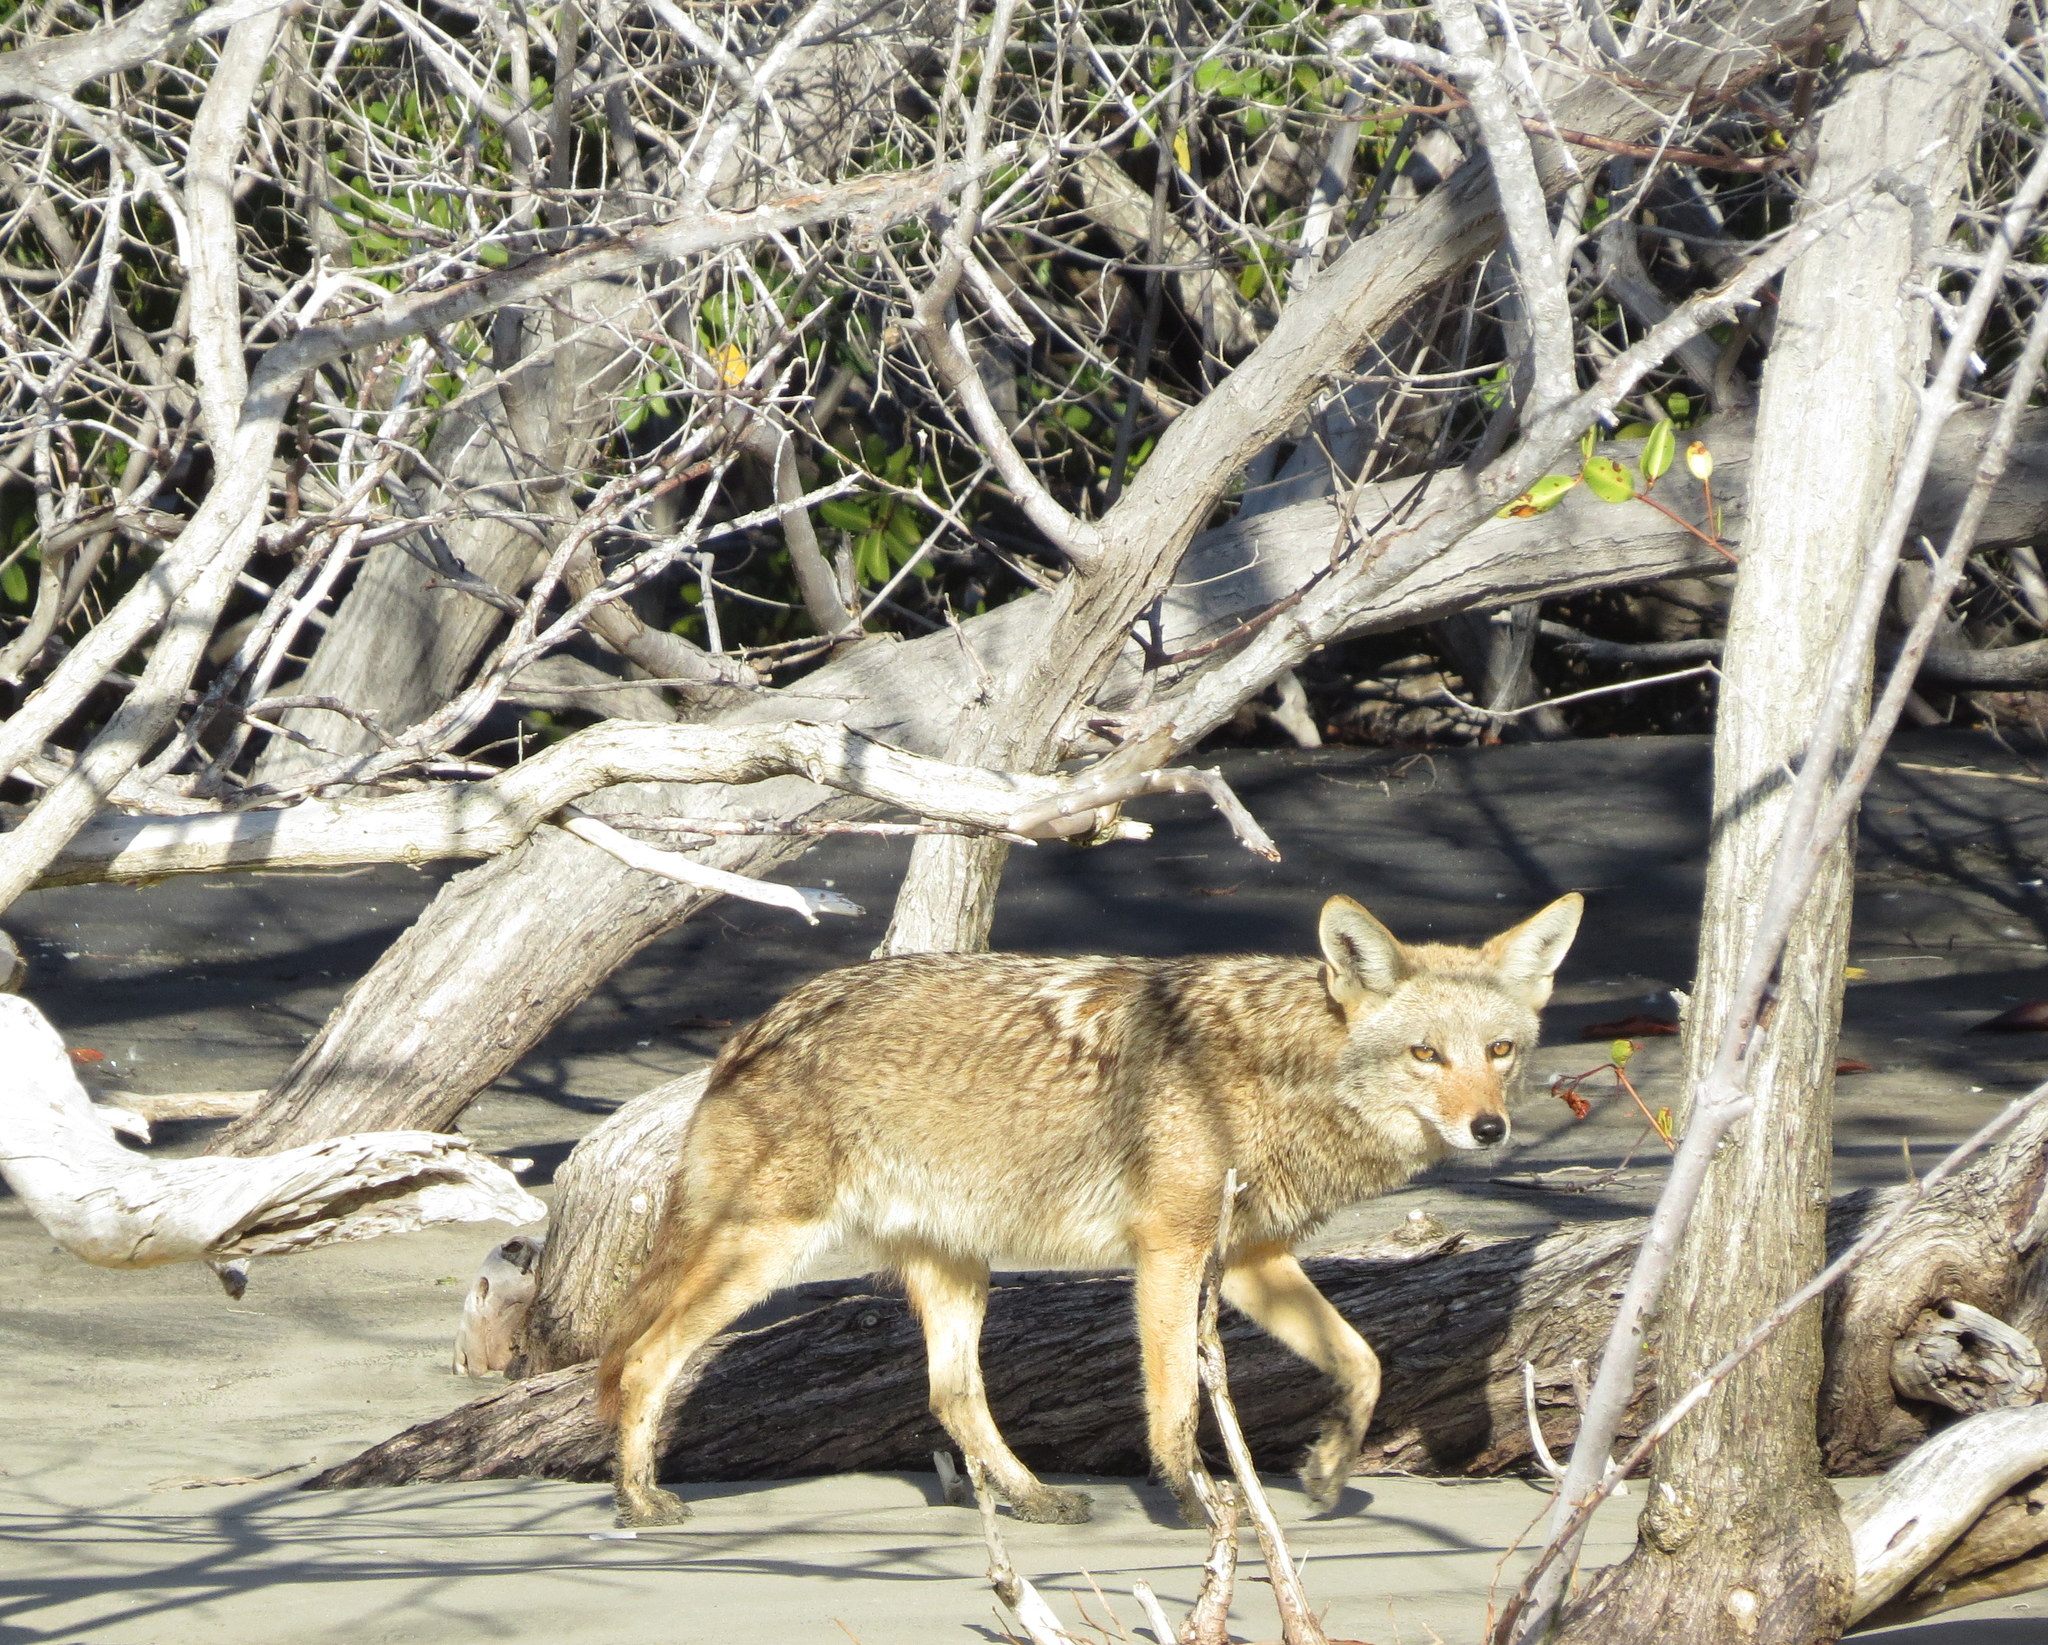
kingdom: Animalia
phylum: Chordata
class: Mammalia
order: Carnivora
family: Canidae
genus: Canis
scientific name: Canis latrans
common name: Coyote
